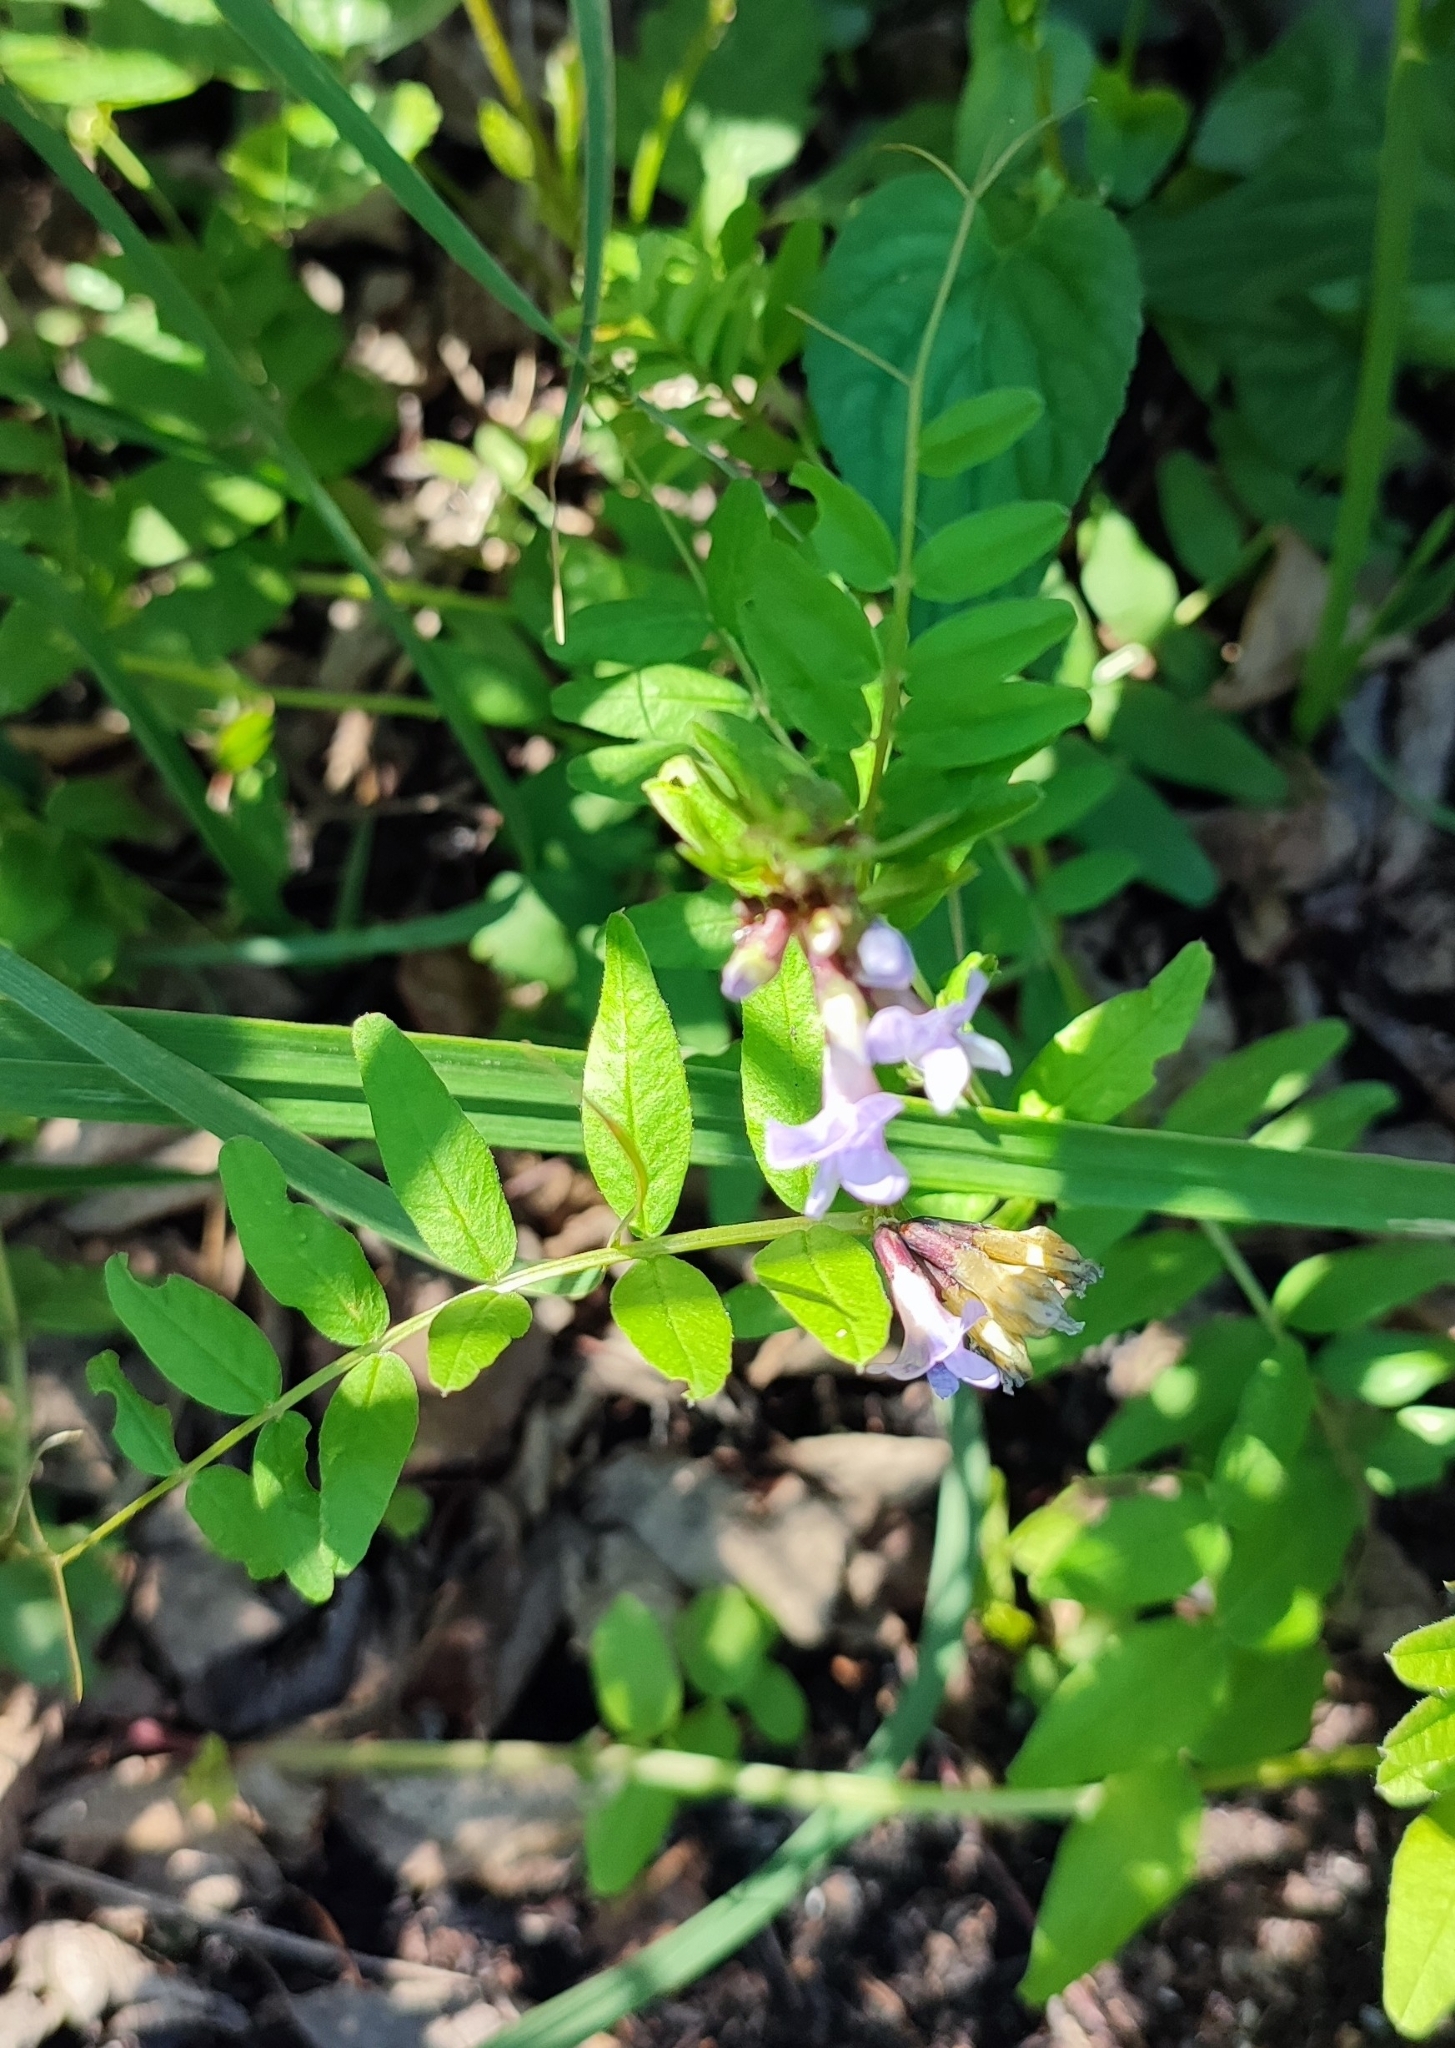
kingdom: Plantae
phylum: Tracheophyta
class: Magnoliopsida
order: Fabales
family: Fabaceae
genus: Vicia
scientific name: Vicia sepium
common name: Bush vetch
